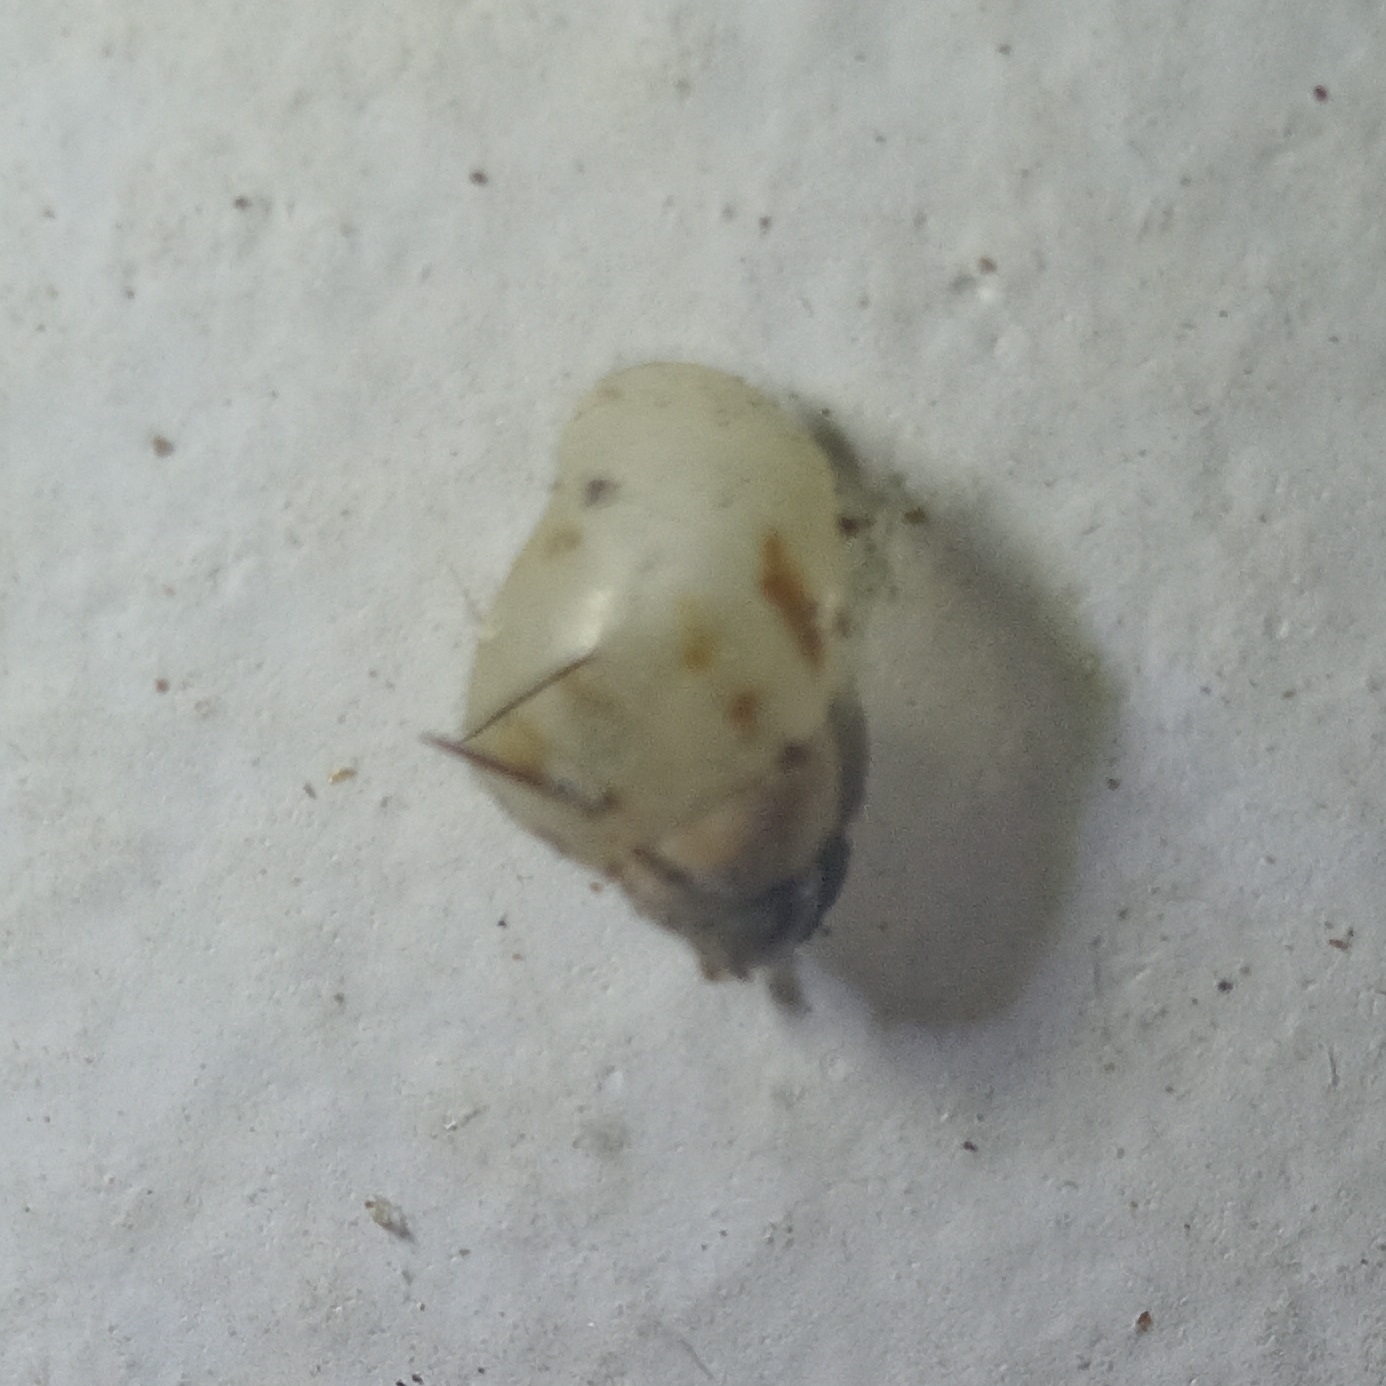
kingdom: Animalia
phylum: Mollusca
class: Gastropoda
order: Stylommatophora
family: Bulimulidae
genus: Drymaeus
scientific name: Drymaeus papyraceus
